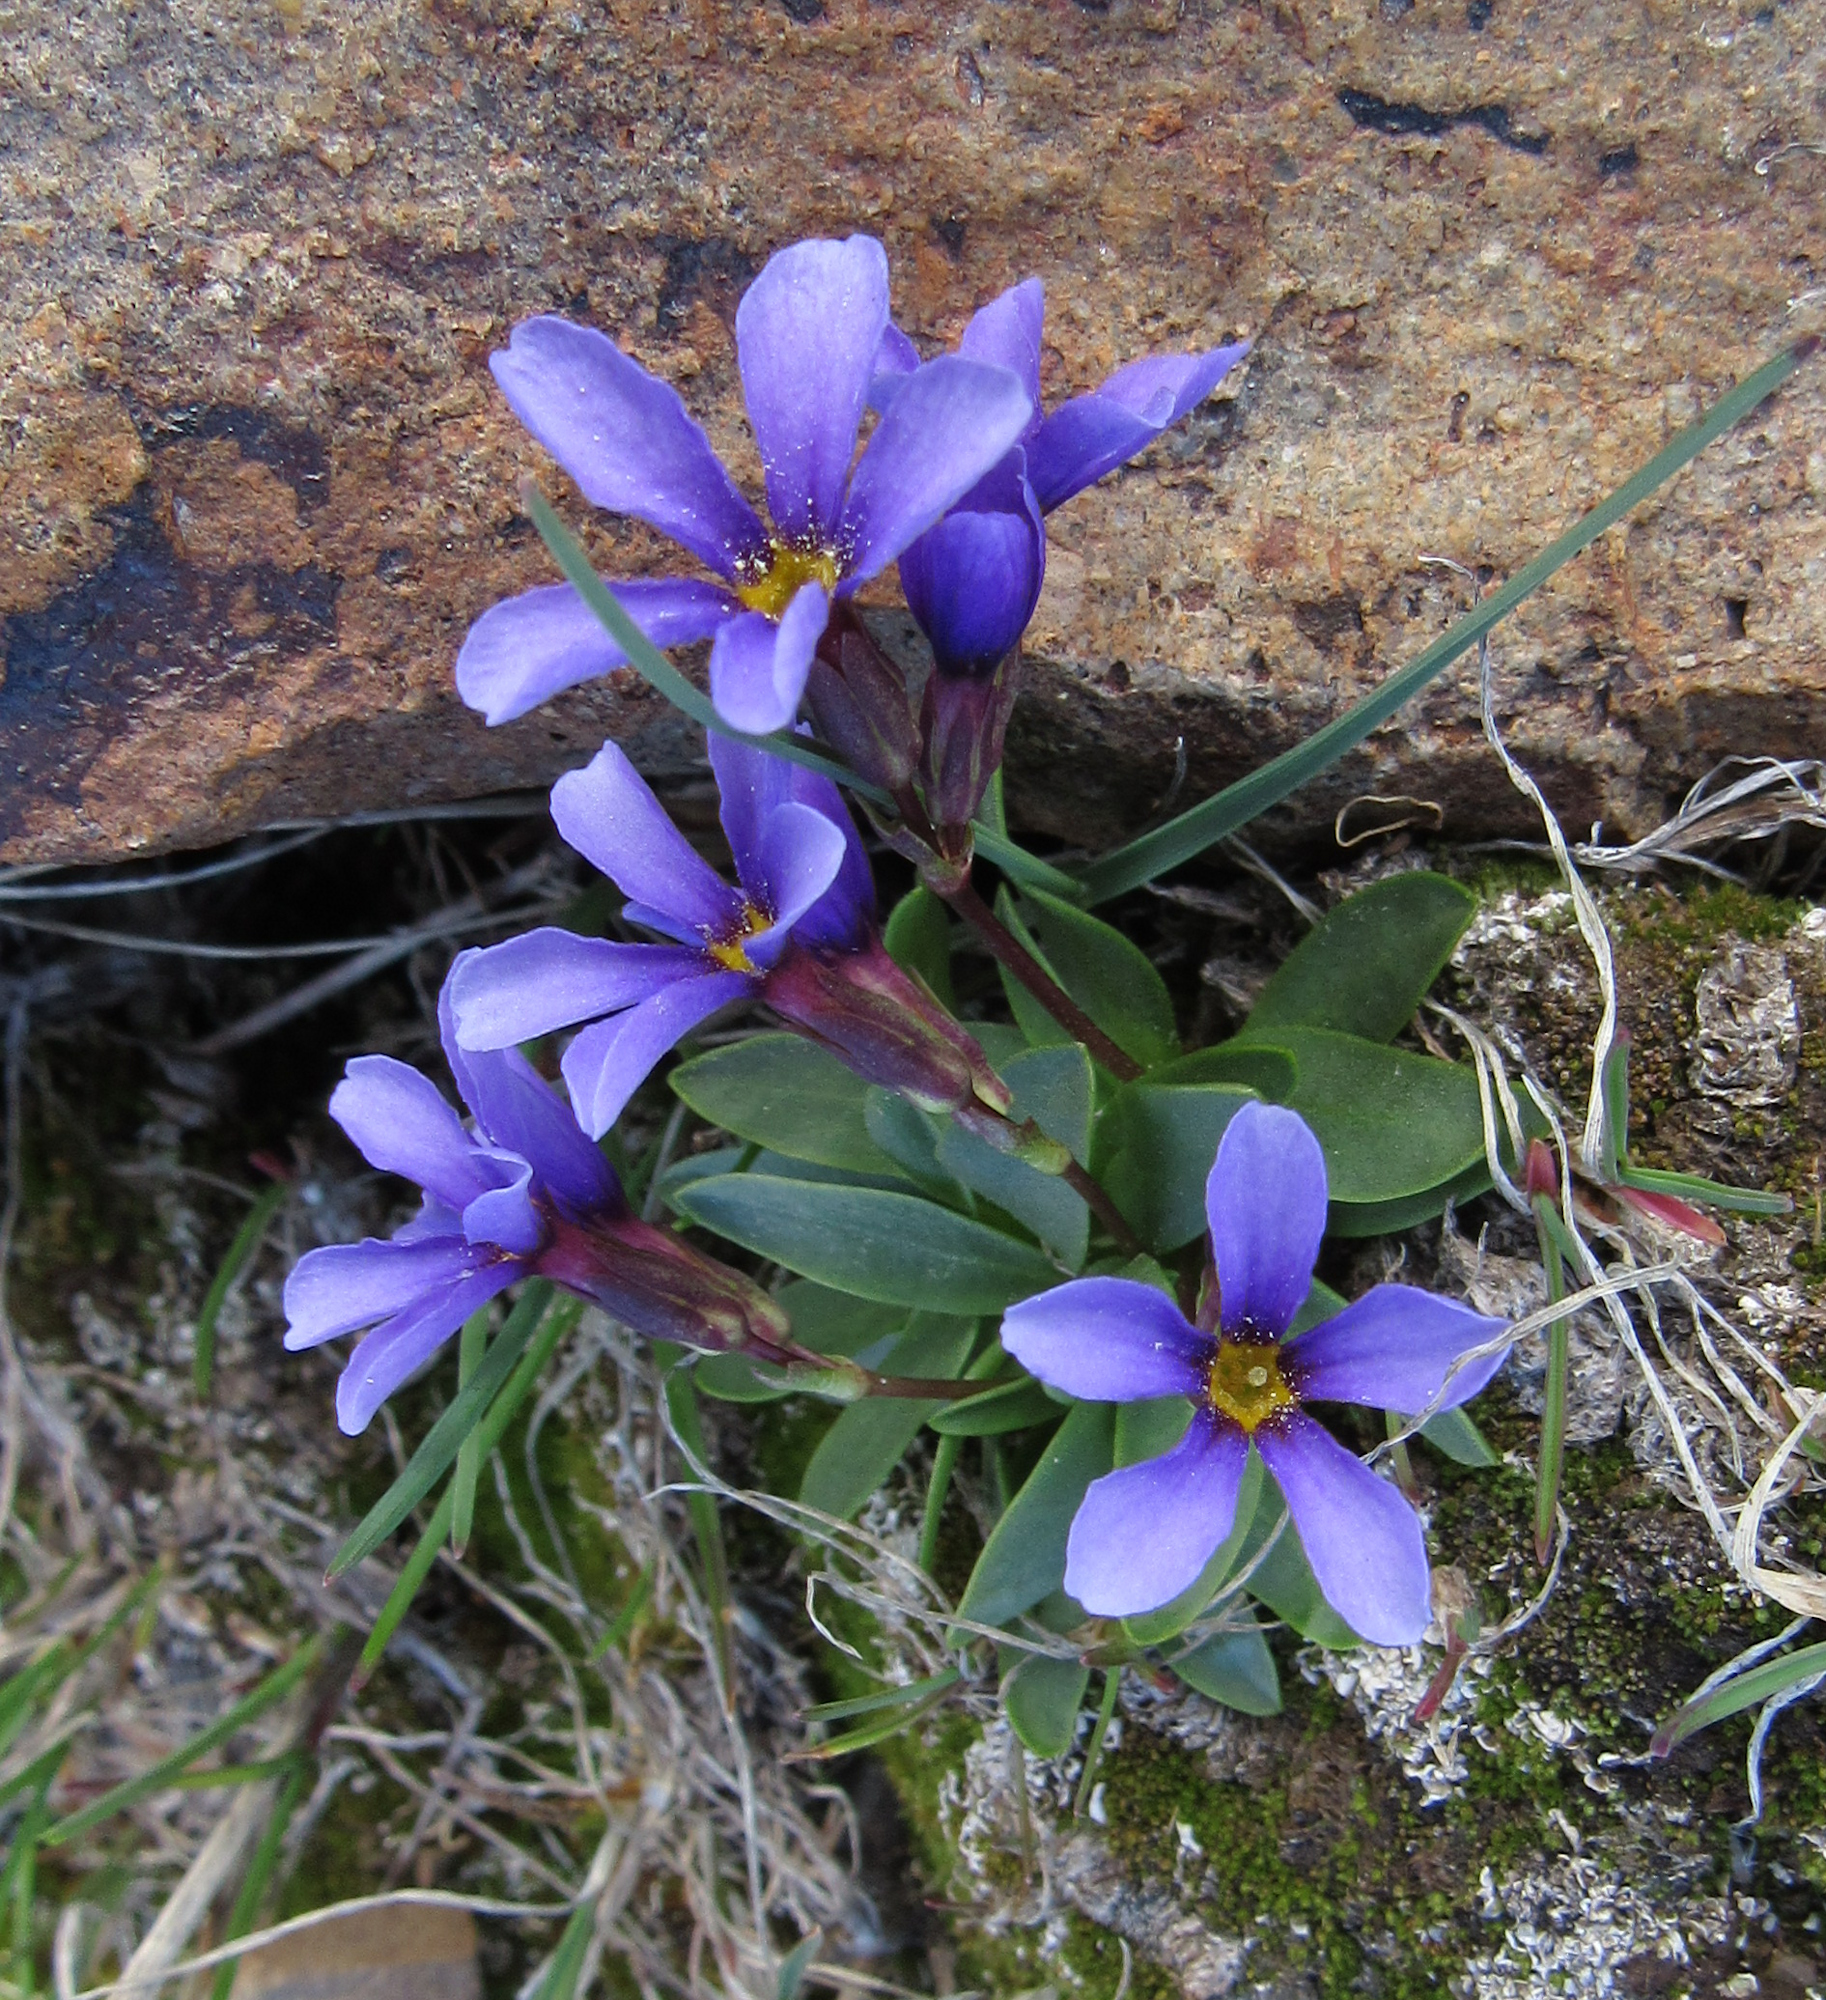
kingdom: Plantae
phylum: Tracheophyta
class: Magnoliopsida
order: Ericales
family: Primulaceae
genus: Primula
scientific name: Primula cusickiana
